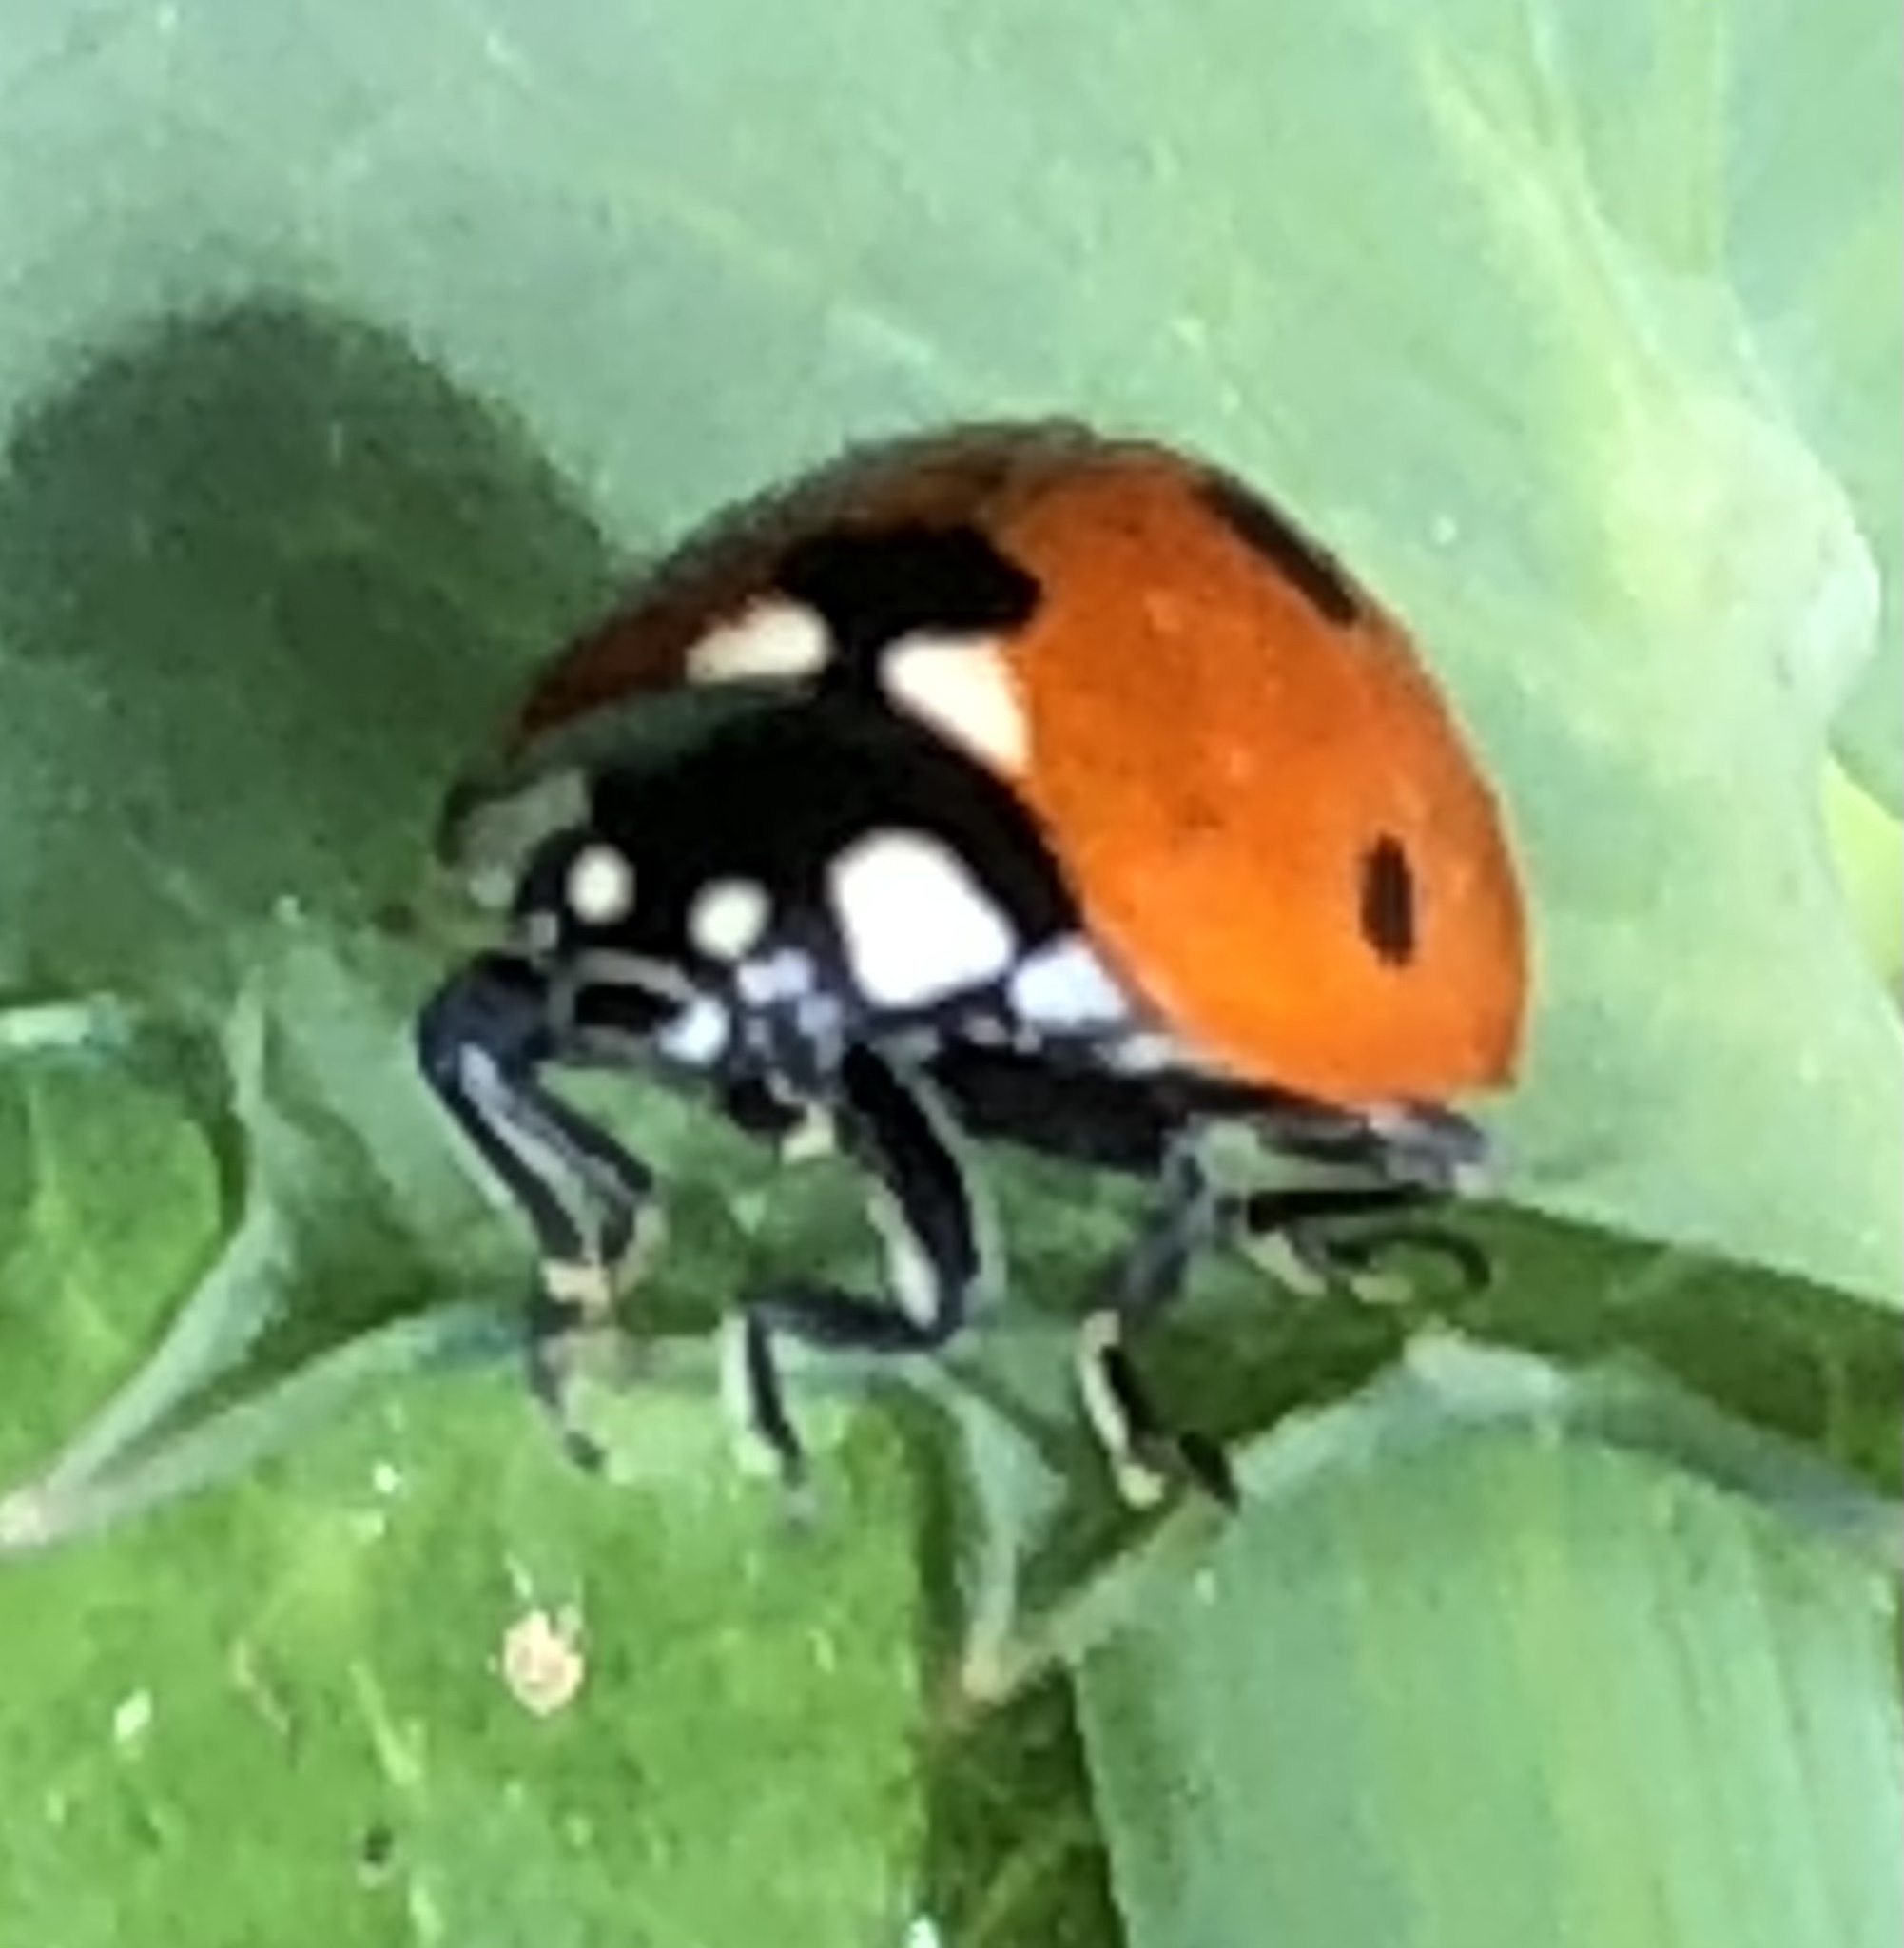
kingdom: Animalia
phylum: Arthropoda
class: Insecta
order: Coleoptera
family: Coccinellidae
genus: Coccinella
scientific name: Coccinella septempunctata
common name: Sevenspotted lady beetle
